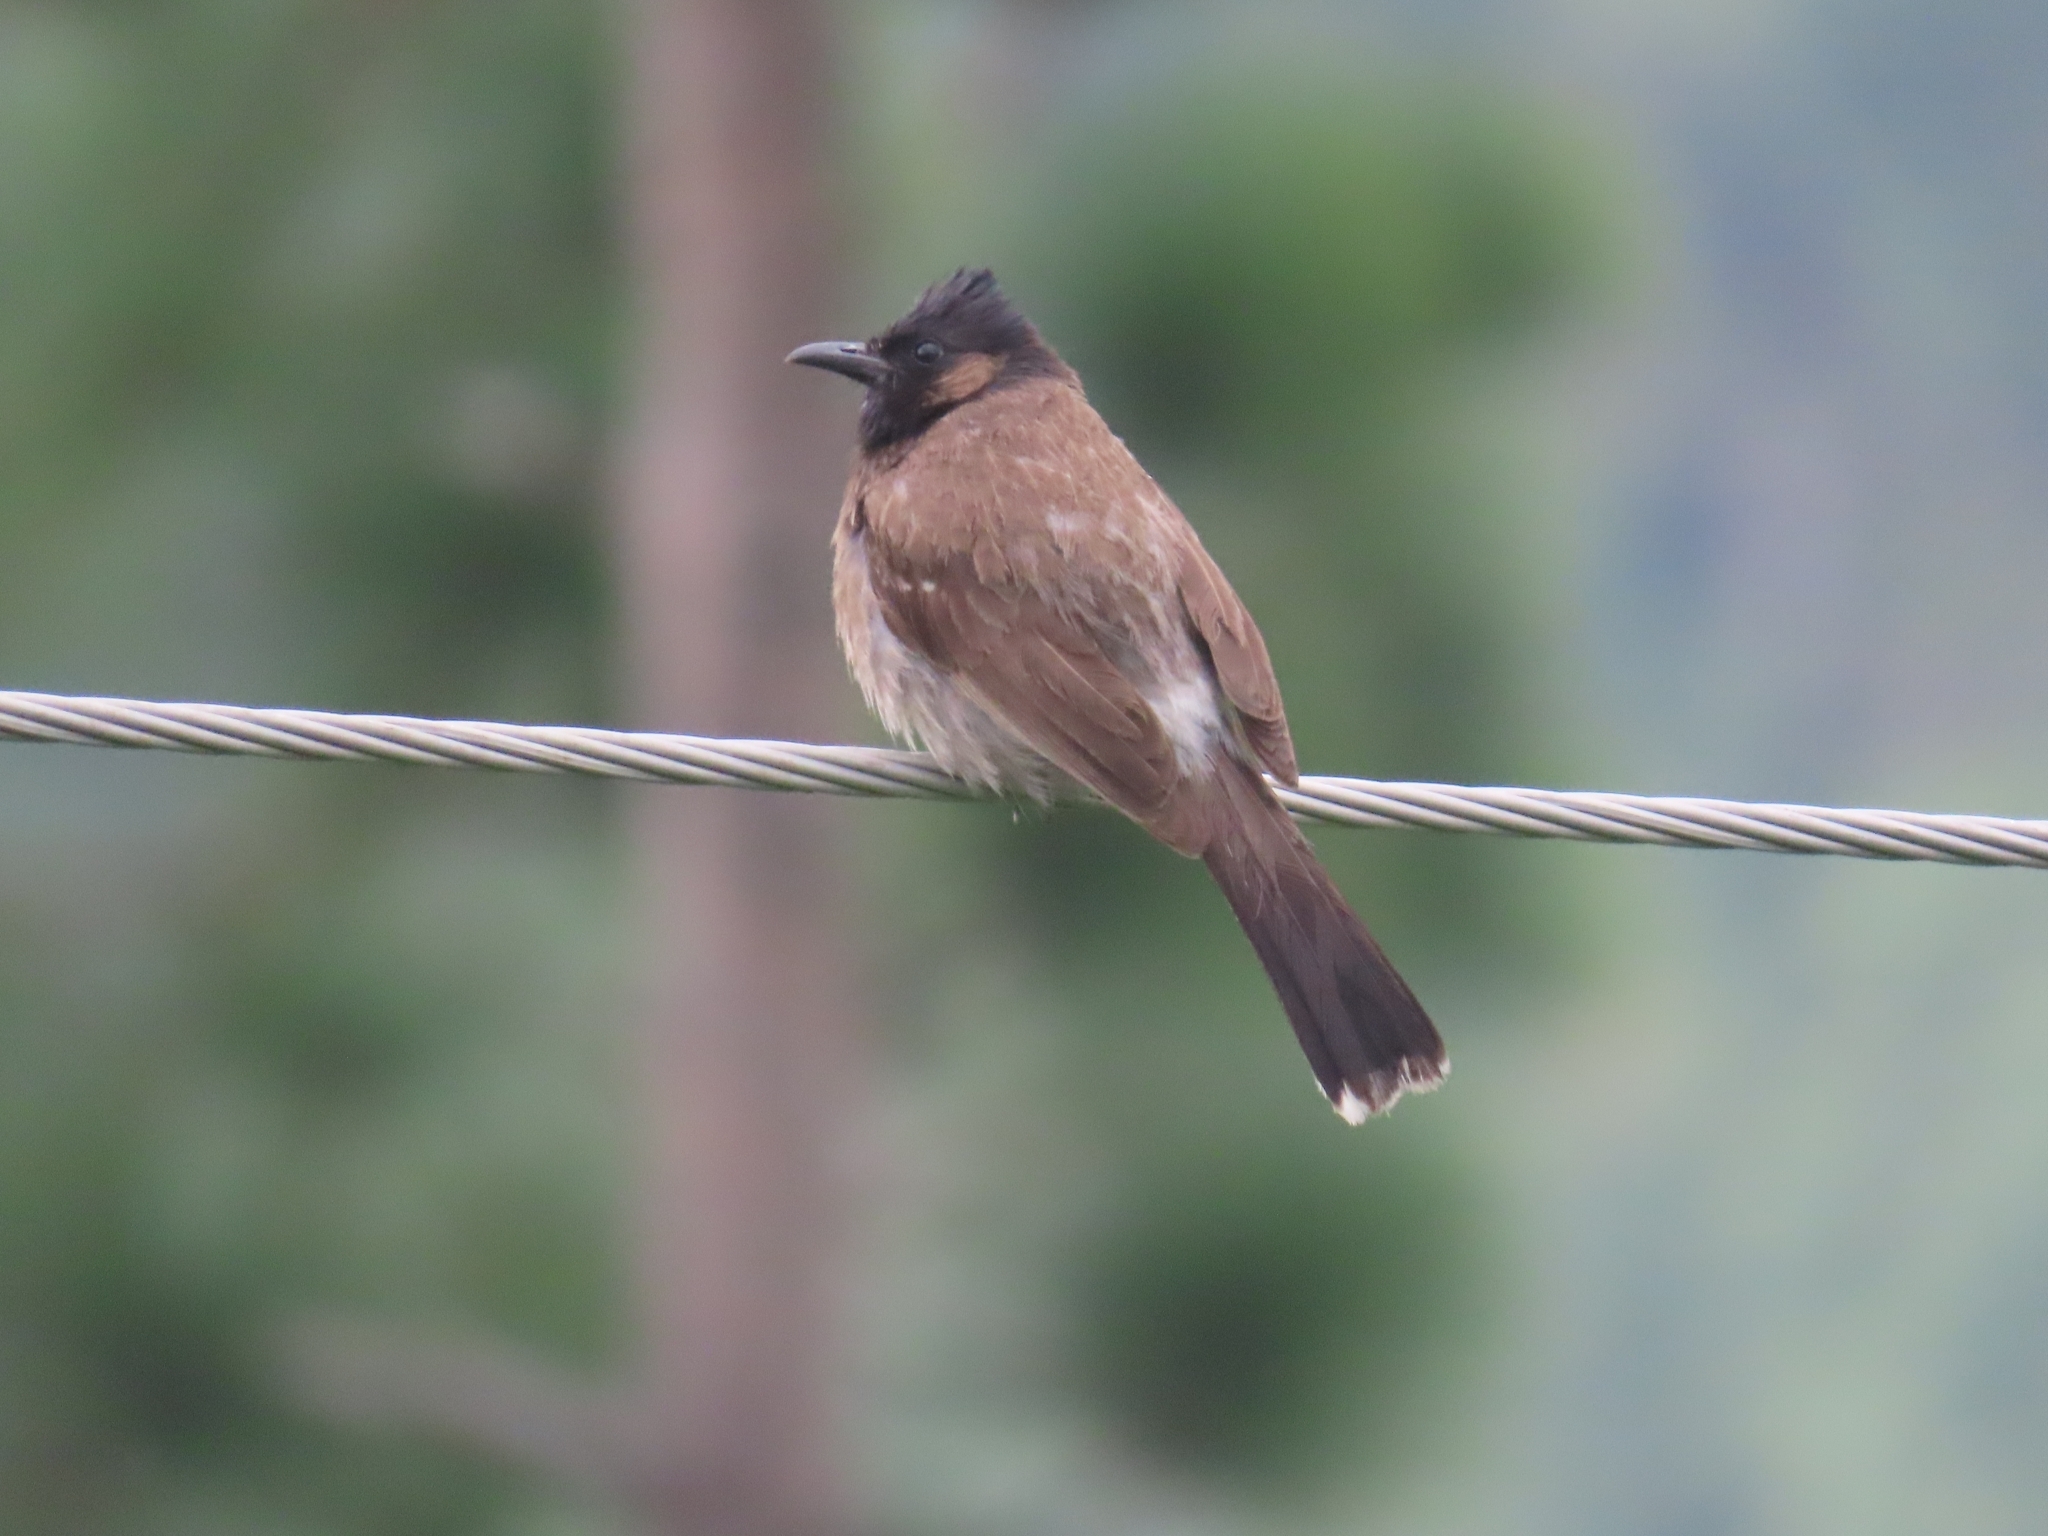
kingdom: Animalia
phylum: Chordata
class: Aves
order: Passeriformes
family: Pycnonotidae
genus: Pycnonotus
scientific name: Pycnonotus cafer
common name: Red-vented bulbul
